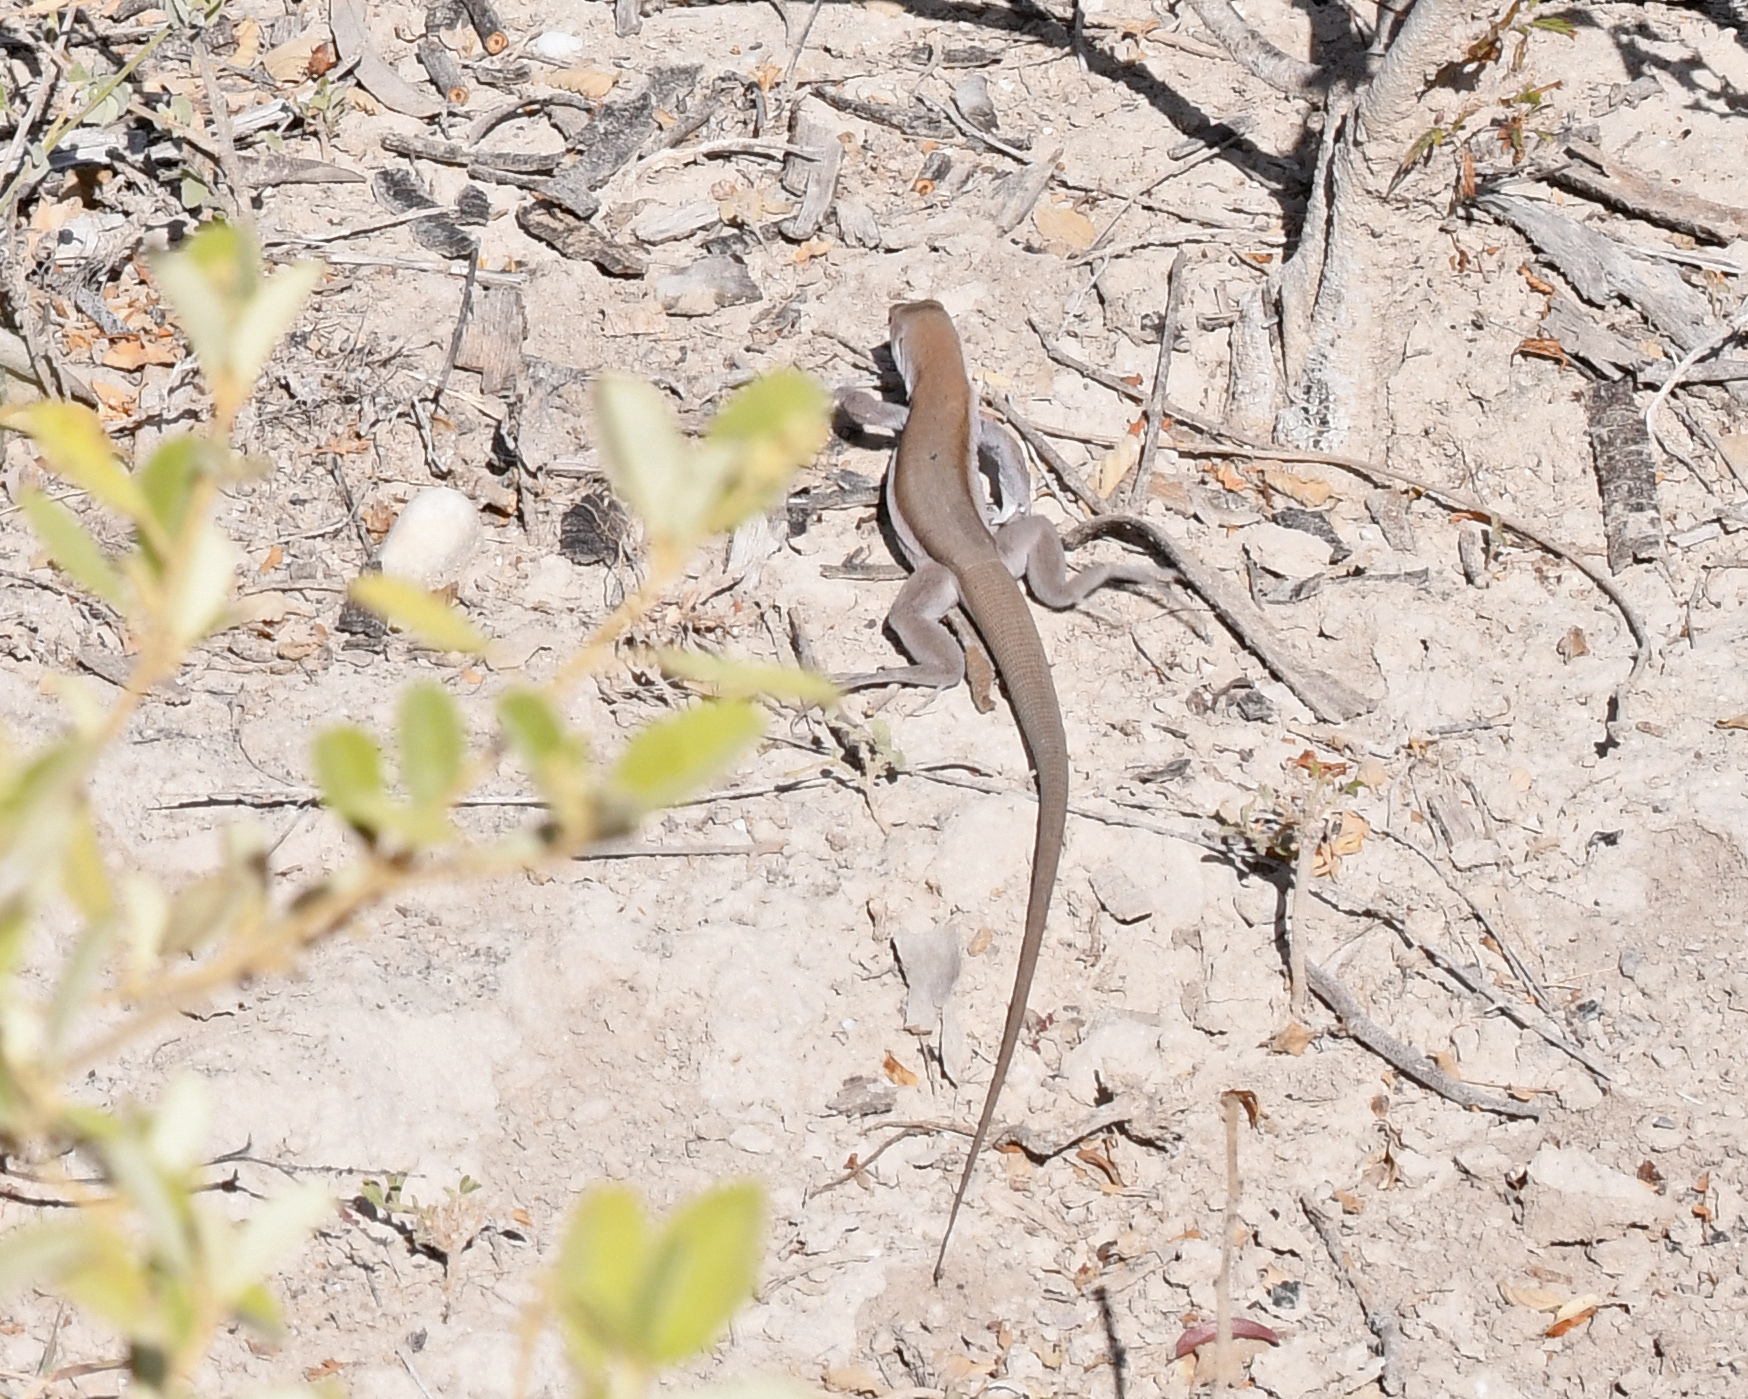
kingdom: Animalia
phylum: Chordata
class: Squamata
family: Teiidae
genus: Pholidoscelis
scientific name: Pholidoscelis chrysolaemus
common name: Common ameiva
